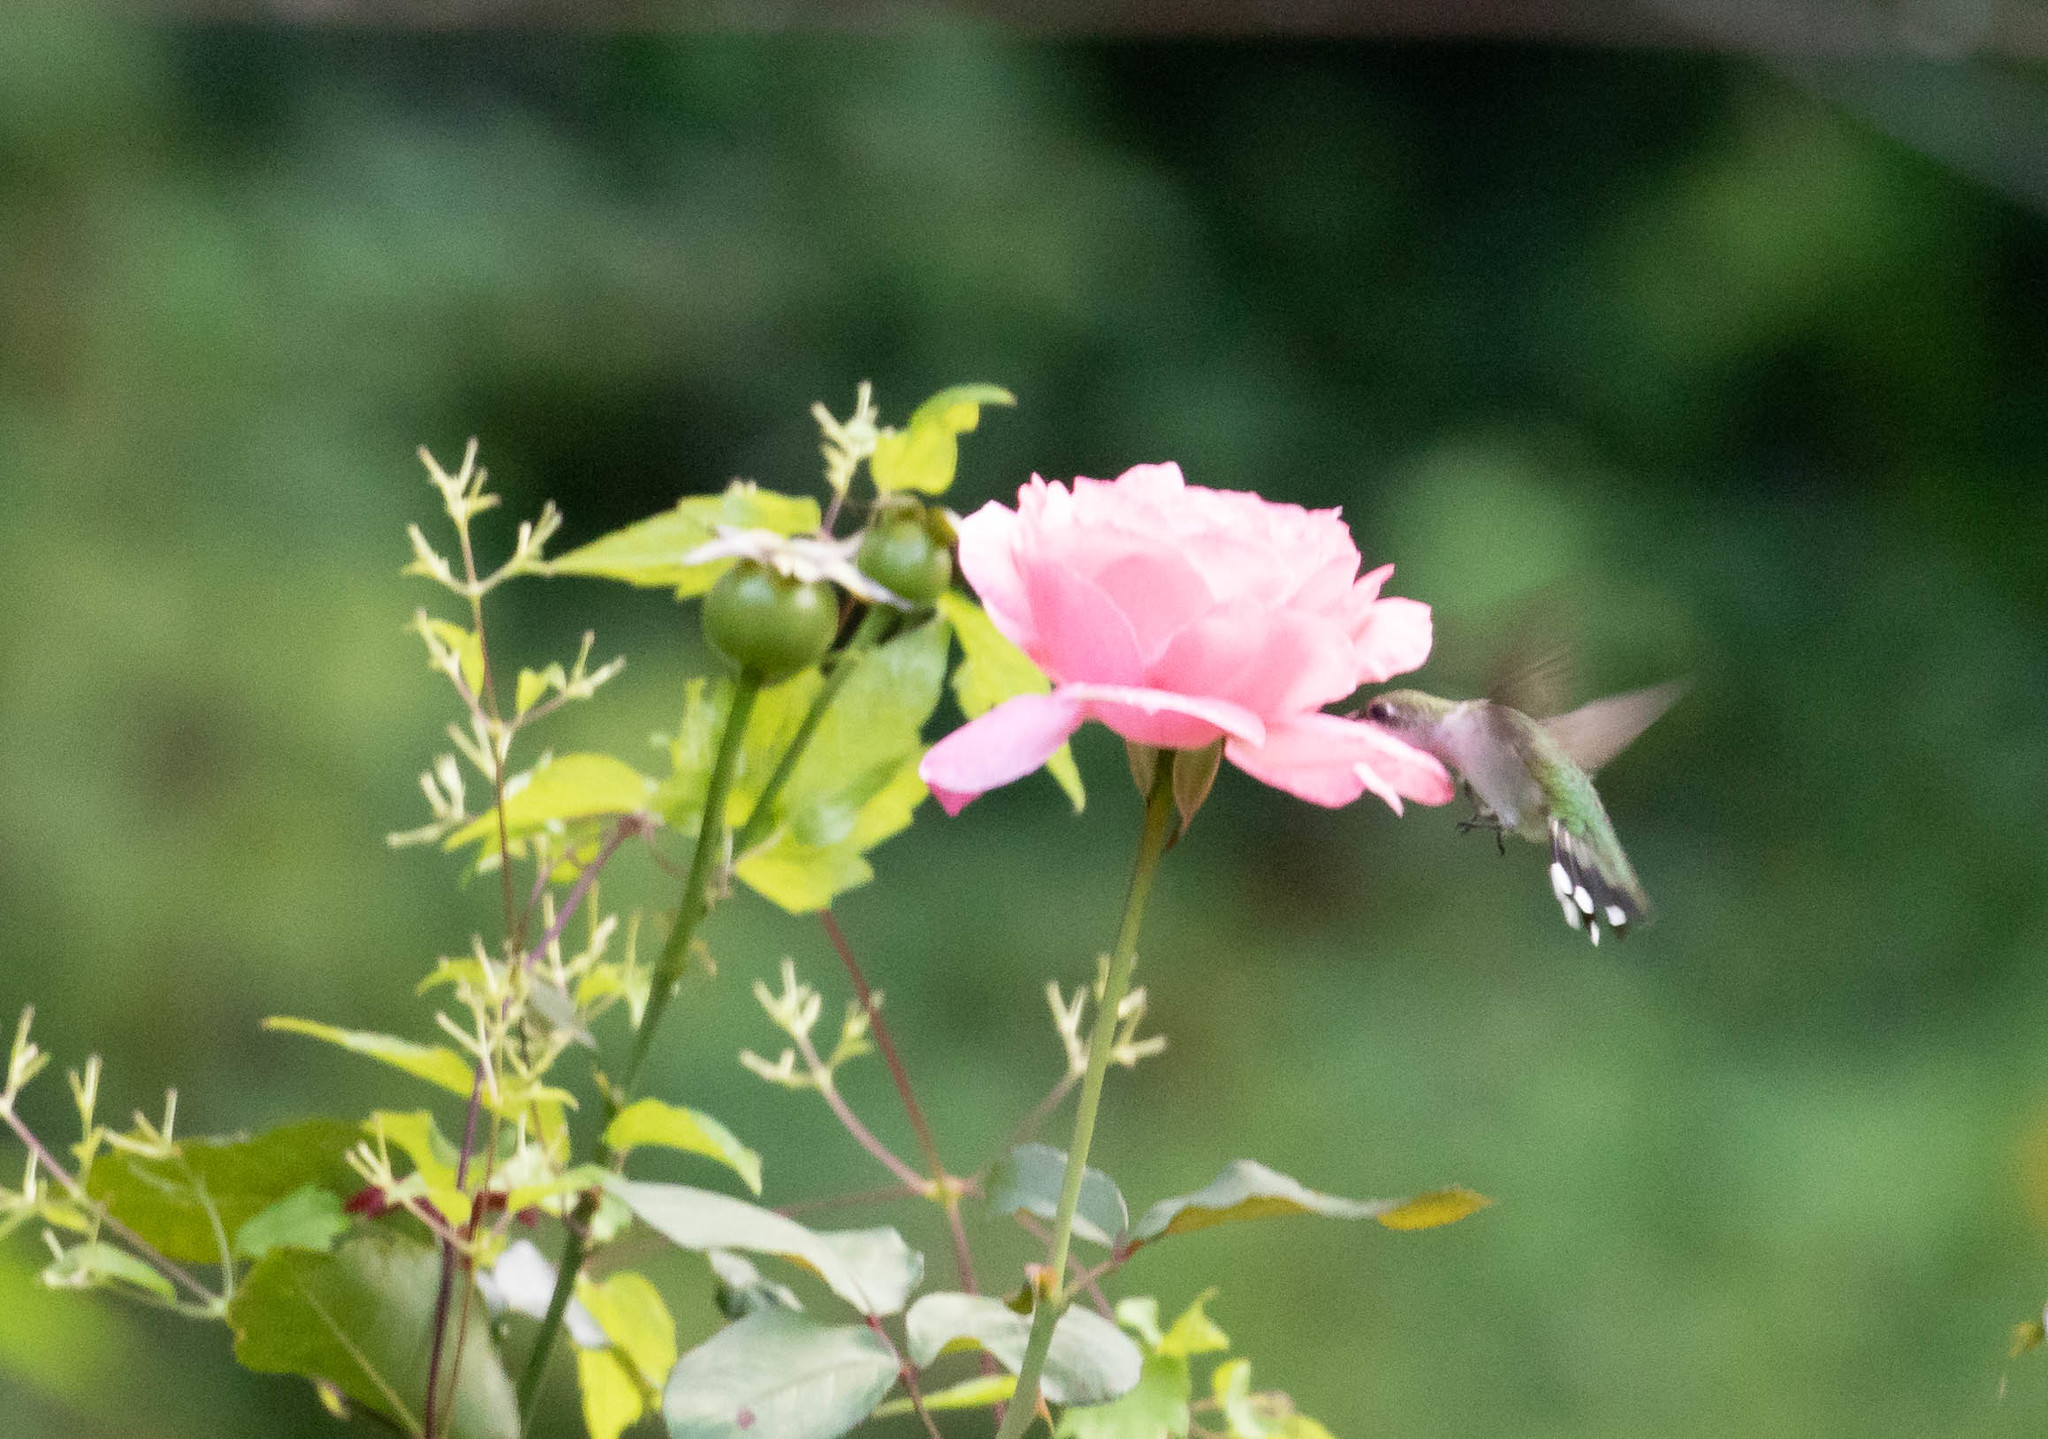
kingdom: Animalia
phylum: Chordata
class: Aves
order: Apodiformes
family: Trochilidae
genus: Archilochus
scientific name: Archilochus colubris
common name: Ruby-throated hummingbird
